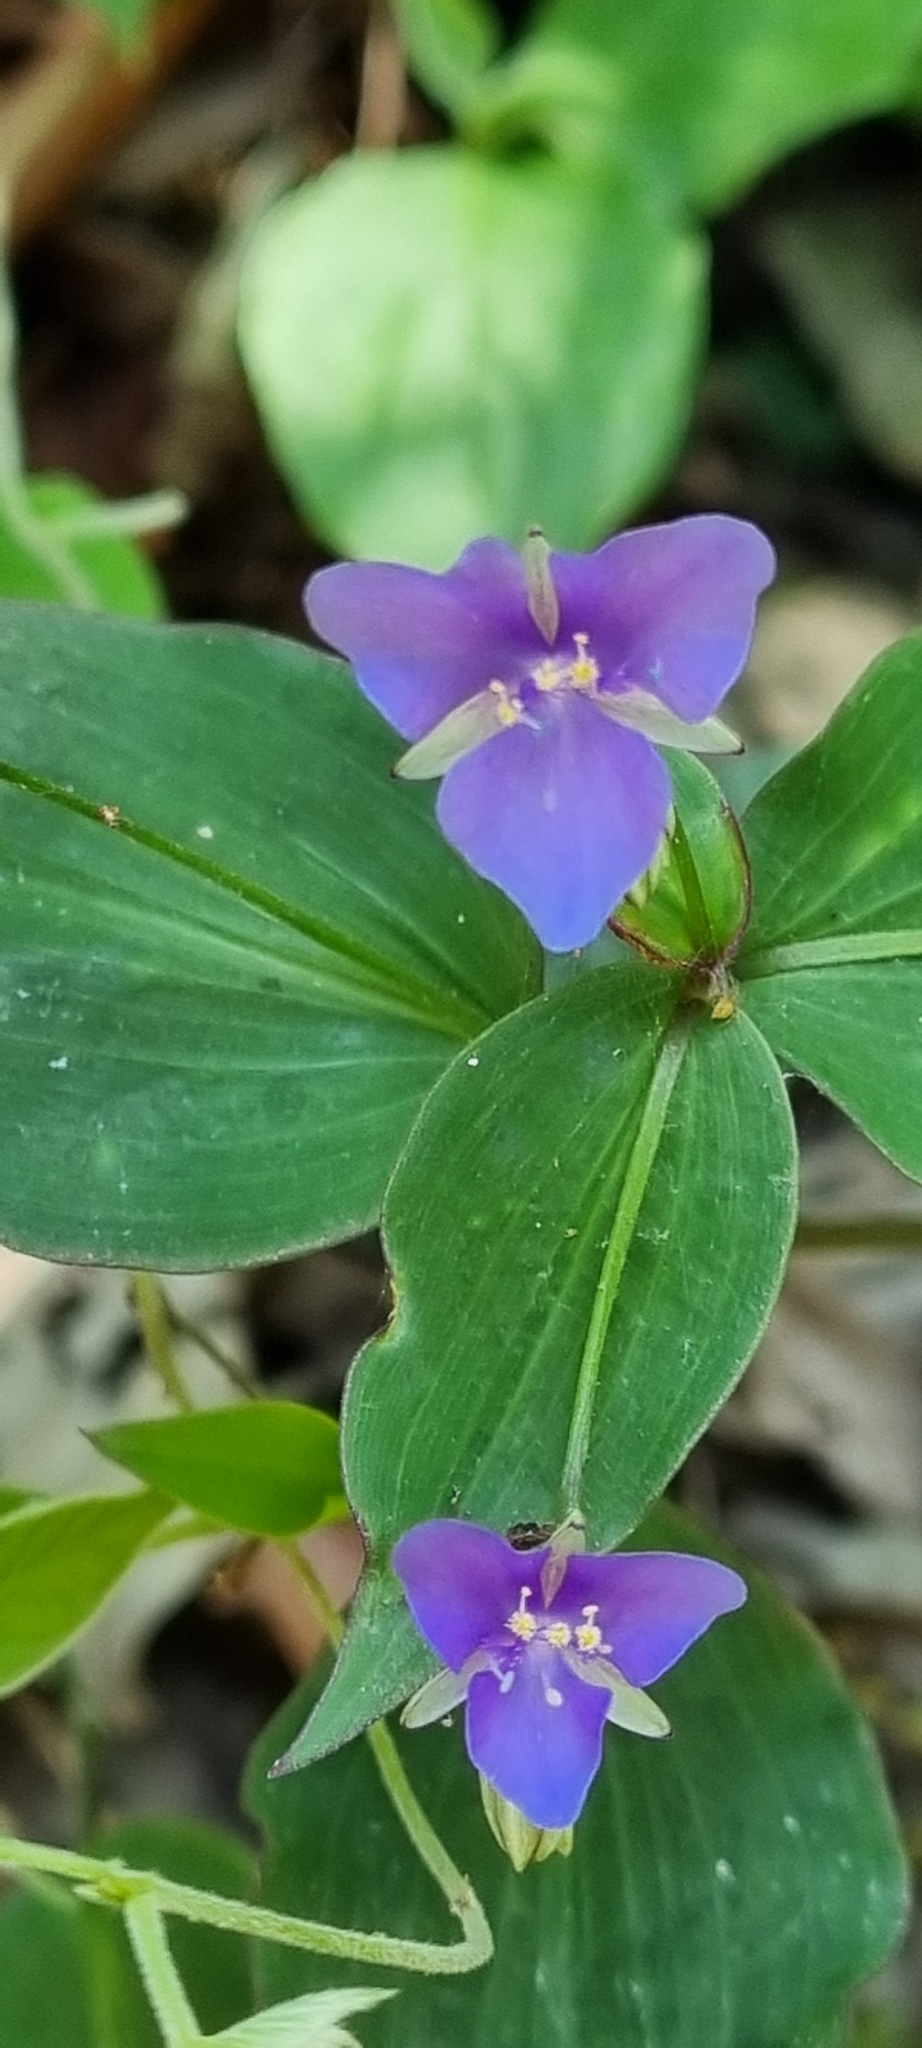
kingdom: Plantae
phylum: Tracheophyta
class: Liliopsida
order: Commelinales
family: Commelinaceae
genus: Tinantia
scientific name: Tinantia pringlei
